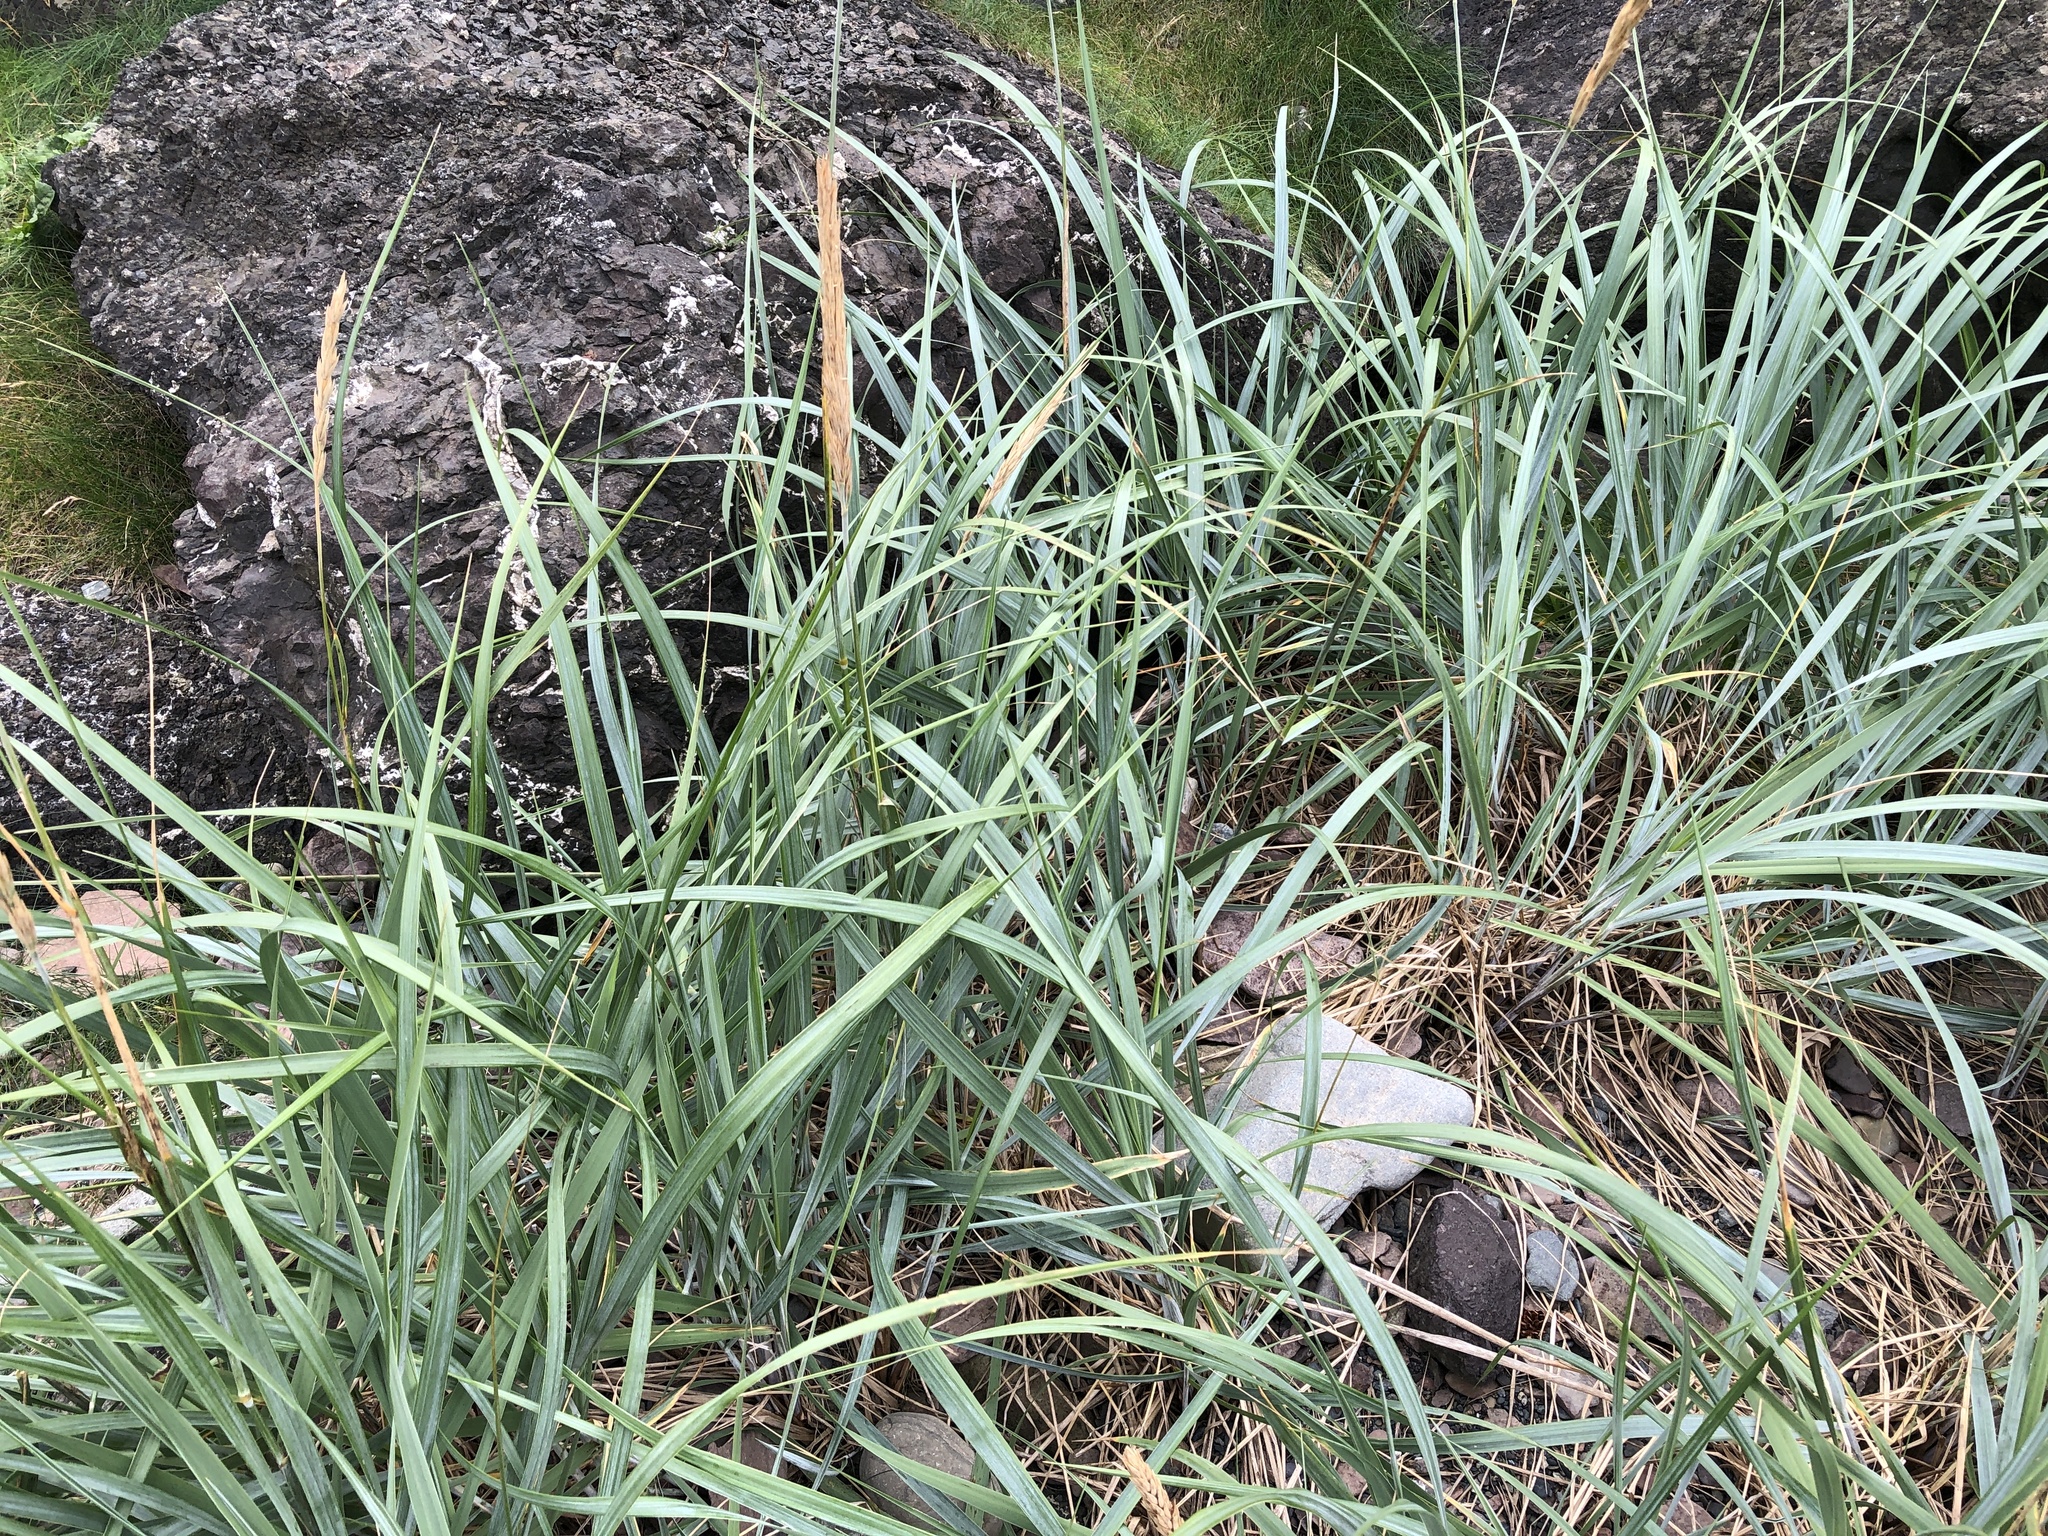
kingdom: Plantae
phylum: Tracheophyta
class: Liliopsida
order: Poales
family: Poaceae
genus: Leymus
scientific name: Leymus mollis
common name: American dune grass
